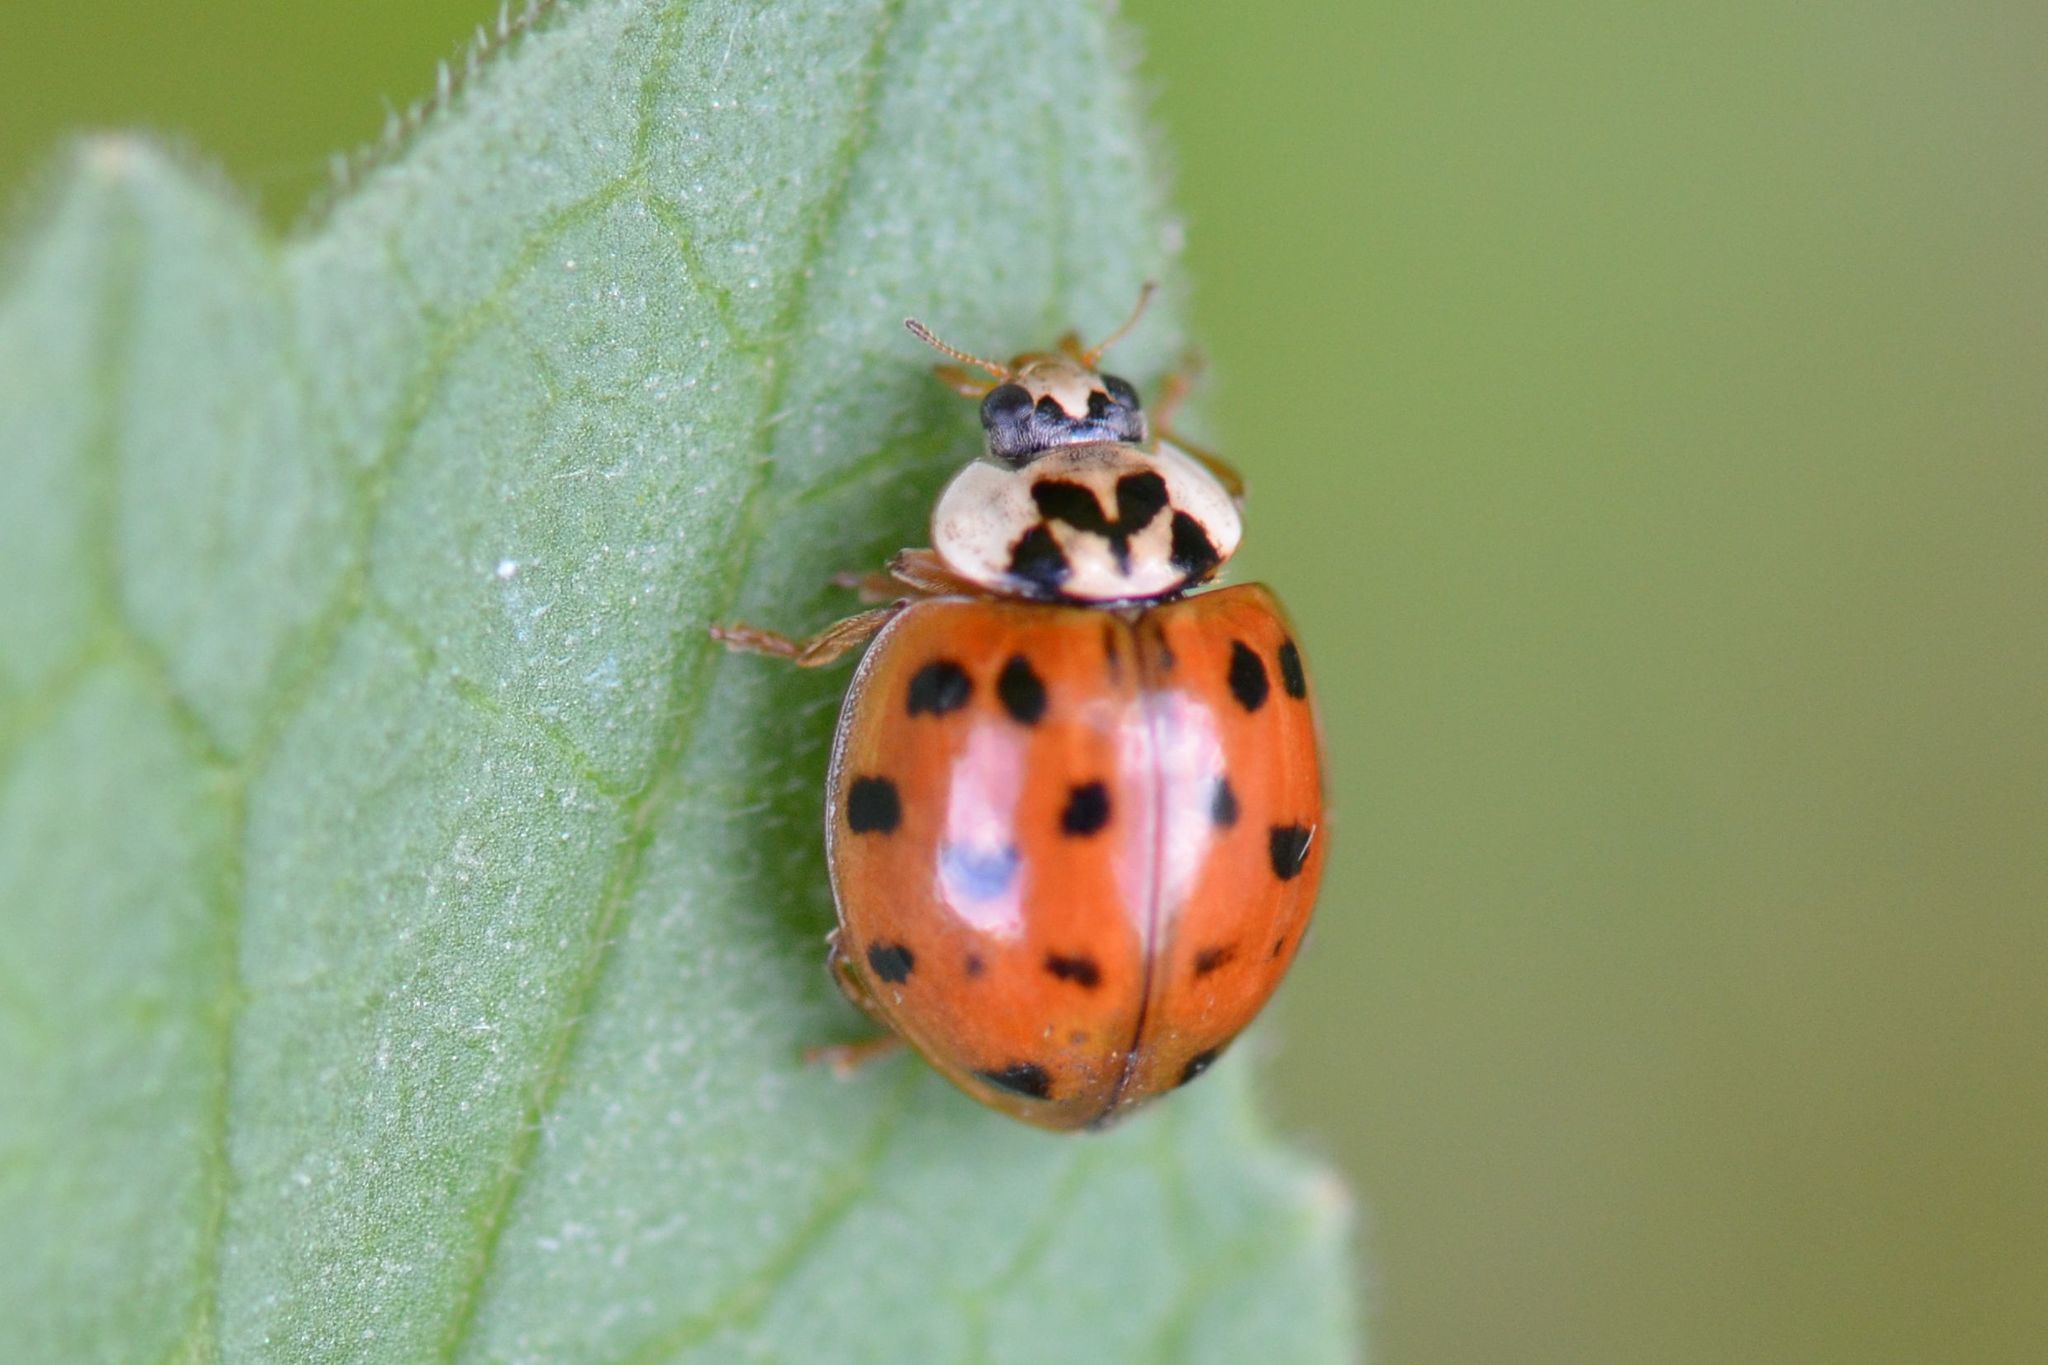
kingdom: Animalia
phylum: Arthropoda
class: Insecta
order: Coleoptera
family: Coccinellidae
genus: Harmonia
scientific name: Harmonia axyridis
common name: Harlequin ladybird
